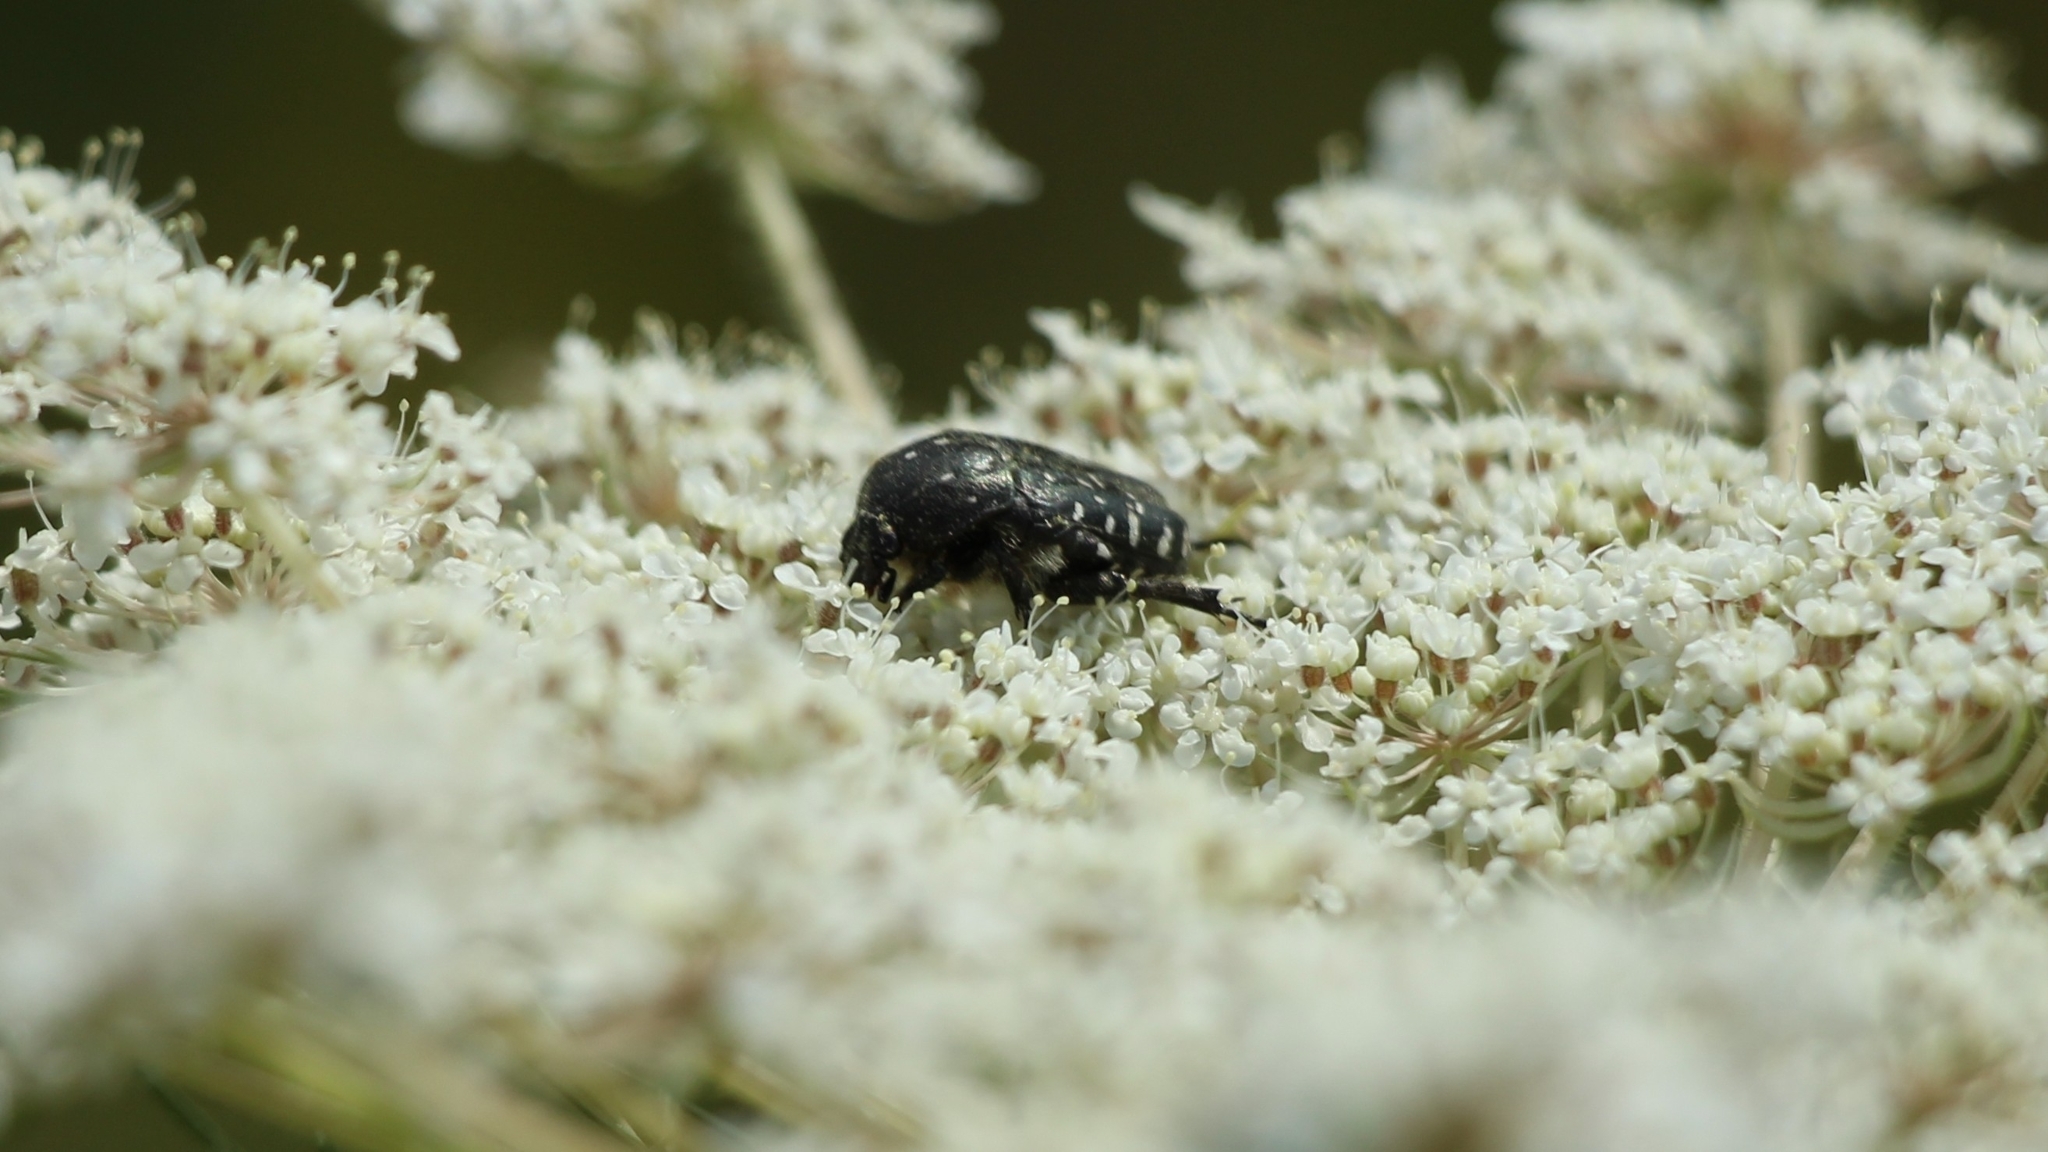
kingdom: Animalia
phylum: Arthropoda
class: Insecta
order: Coleoptera
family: Scarabaeidae
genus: Oxythyrea
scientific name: Oxythyrea funesta
